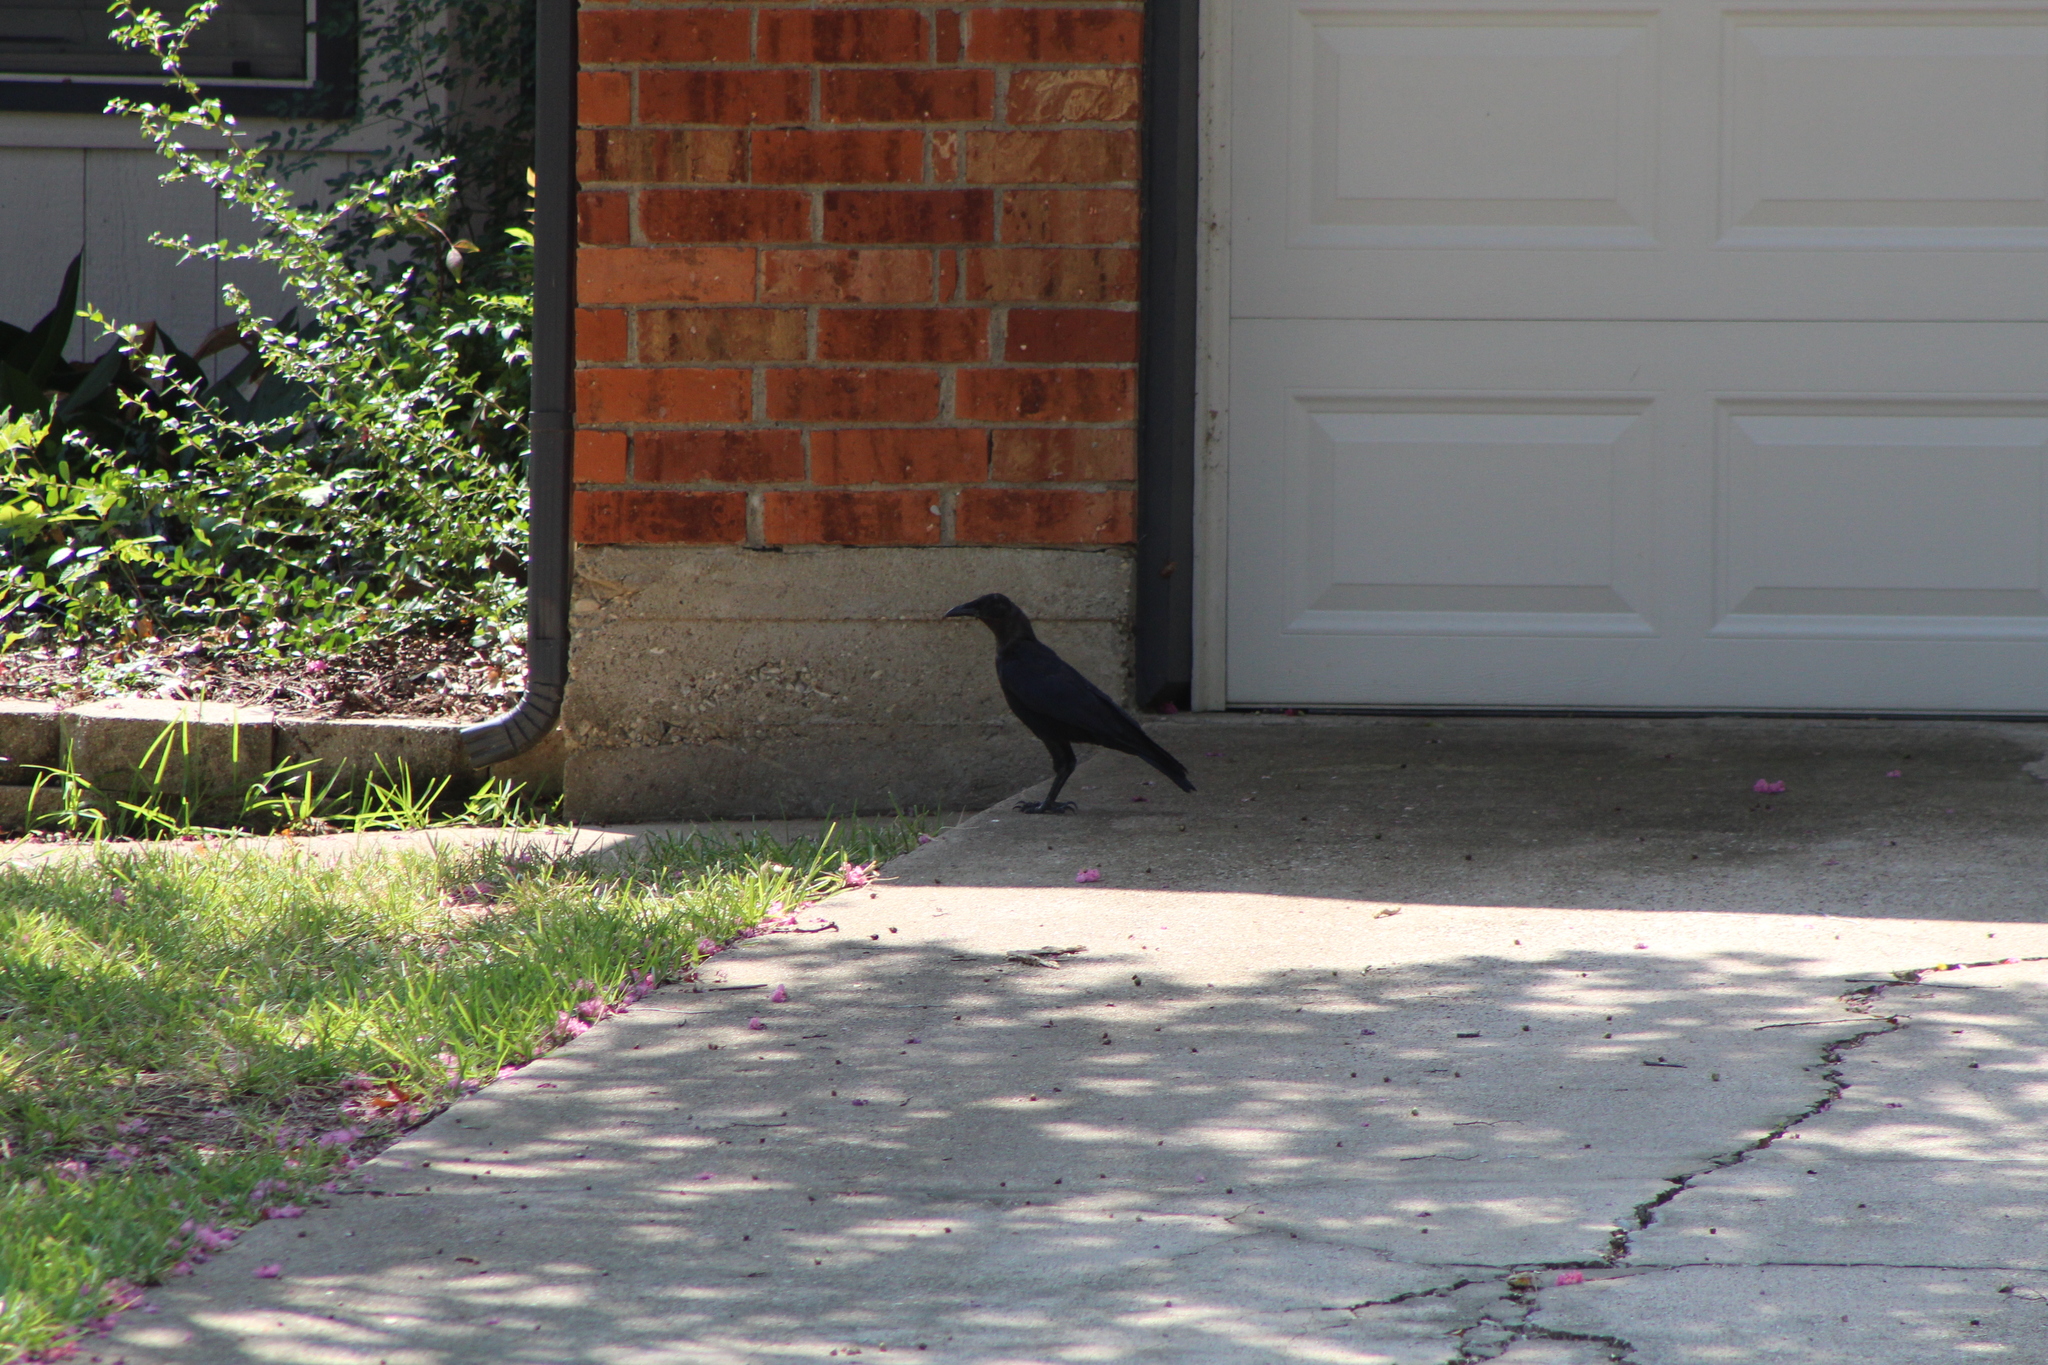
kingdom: Animalia
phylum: Chordata
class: Aves
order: Passeriformes
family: Corvidae
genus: Corvus
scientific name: Corvus brachyrhynchos
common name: American crow
